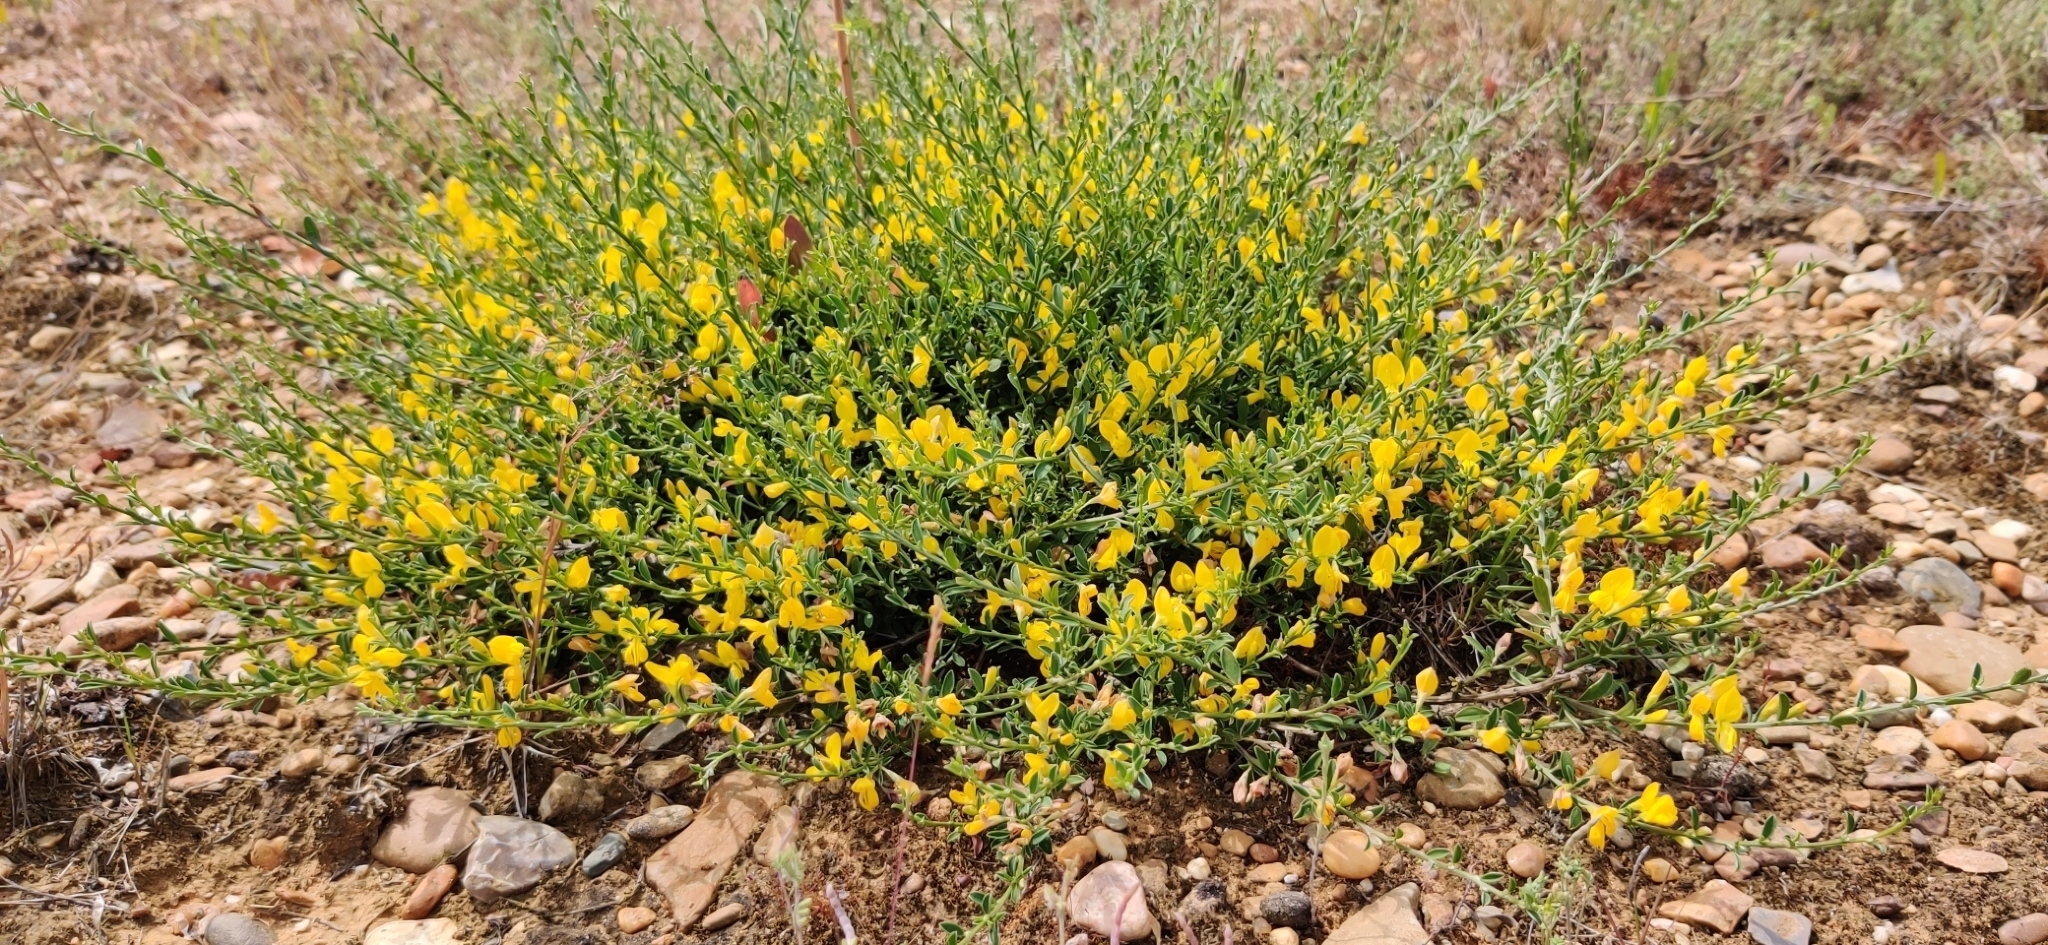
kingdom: Plantae
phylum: Tracheophyta
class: Magnoliopsida
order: Fabales
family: Fabaceae
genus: Genista
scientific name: Genista pilosa
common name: Hairy greenweed
